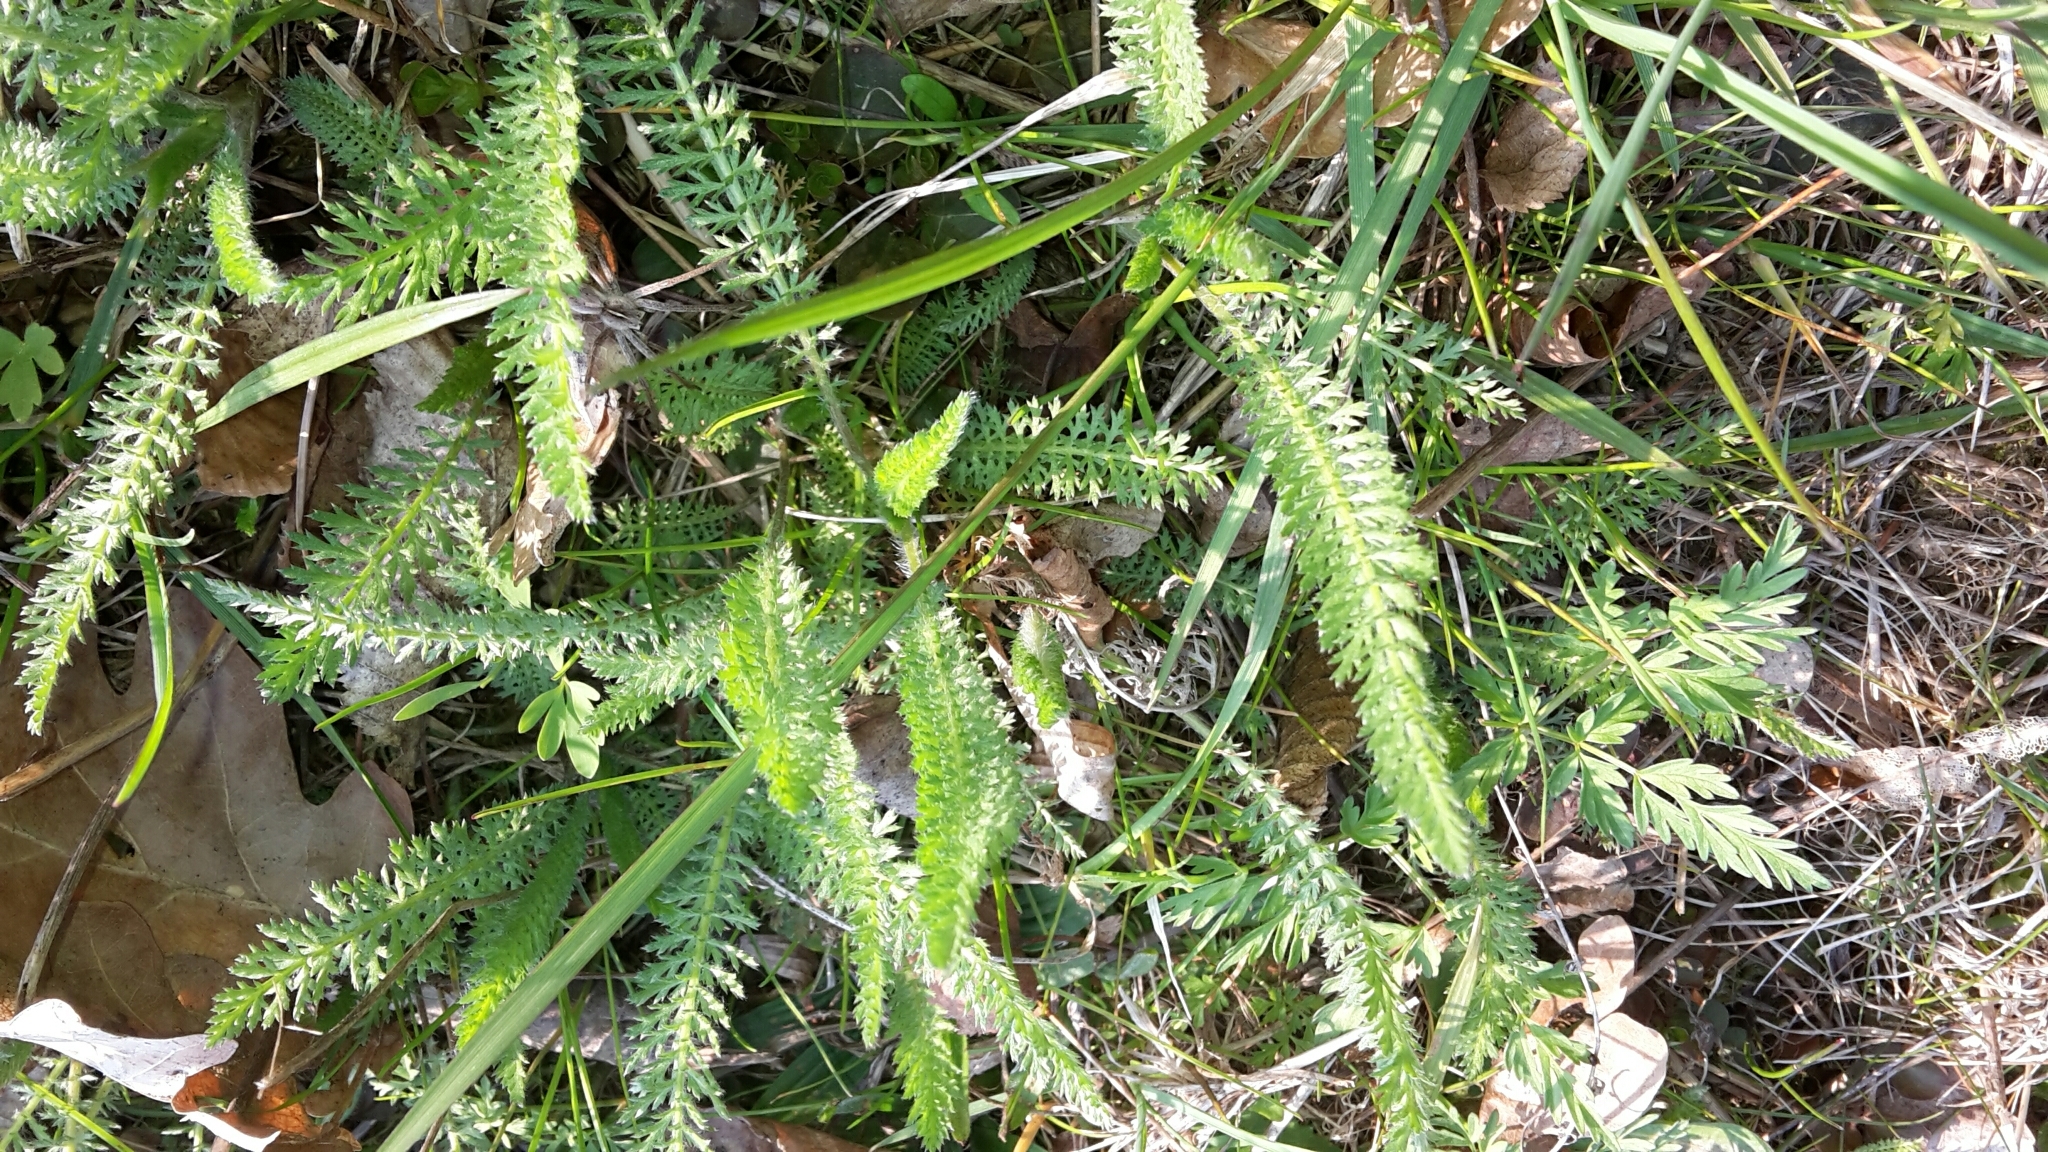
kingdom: Plantae
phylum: Tracheophyta
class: Magnoliopsida
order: Asterales
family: Asteraceae
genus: Achillea
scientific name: Achillea millefolium
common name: Yarrow
